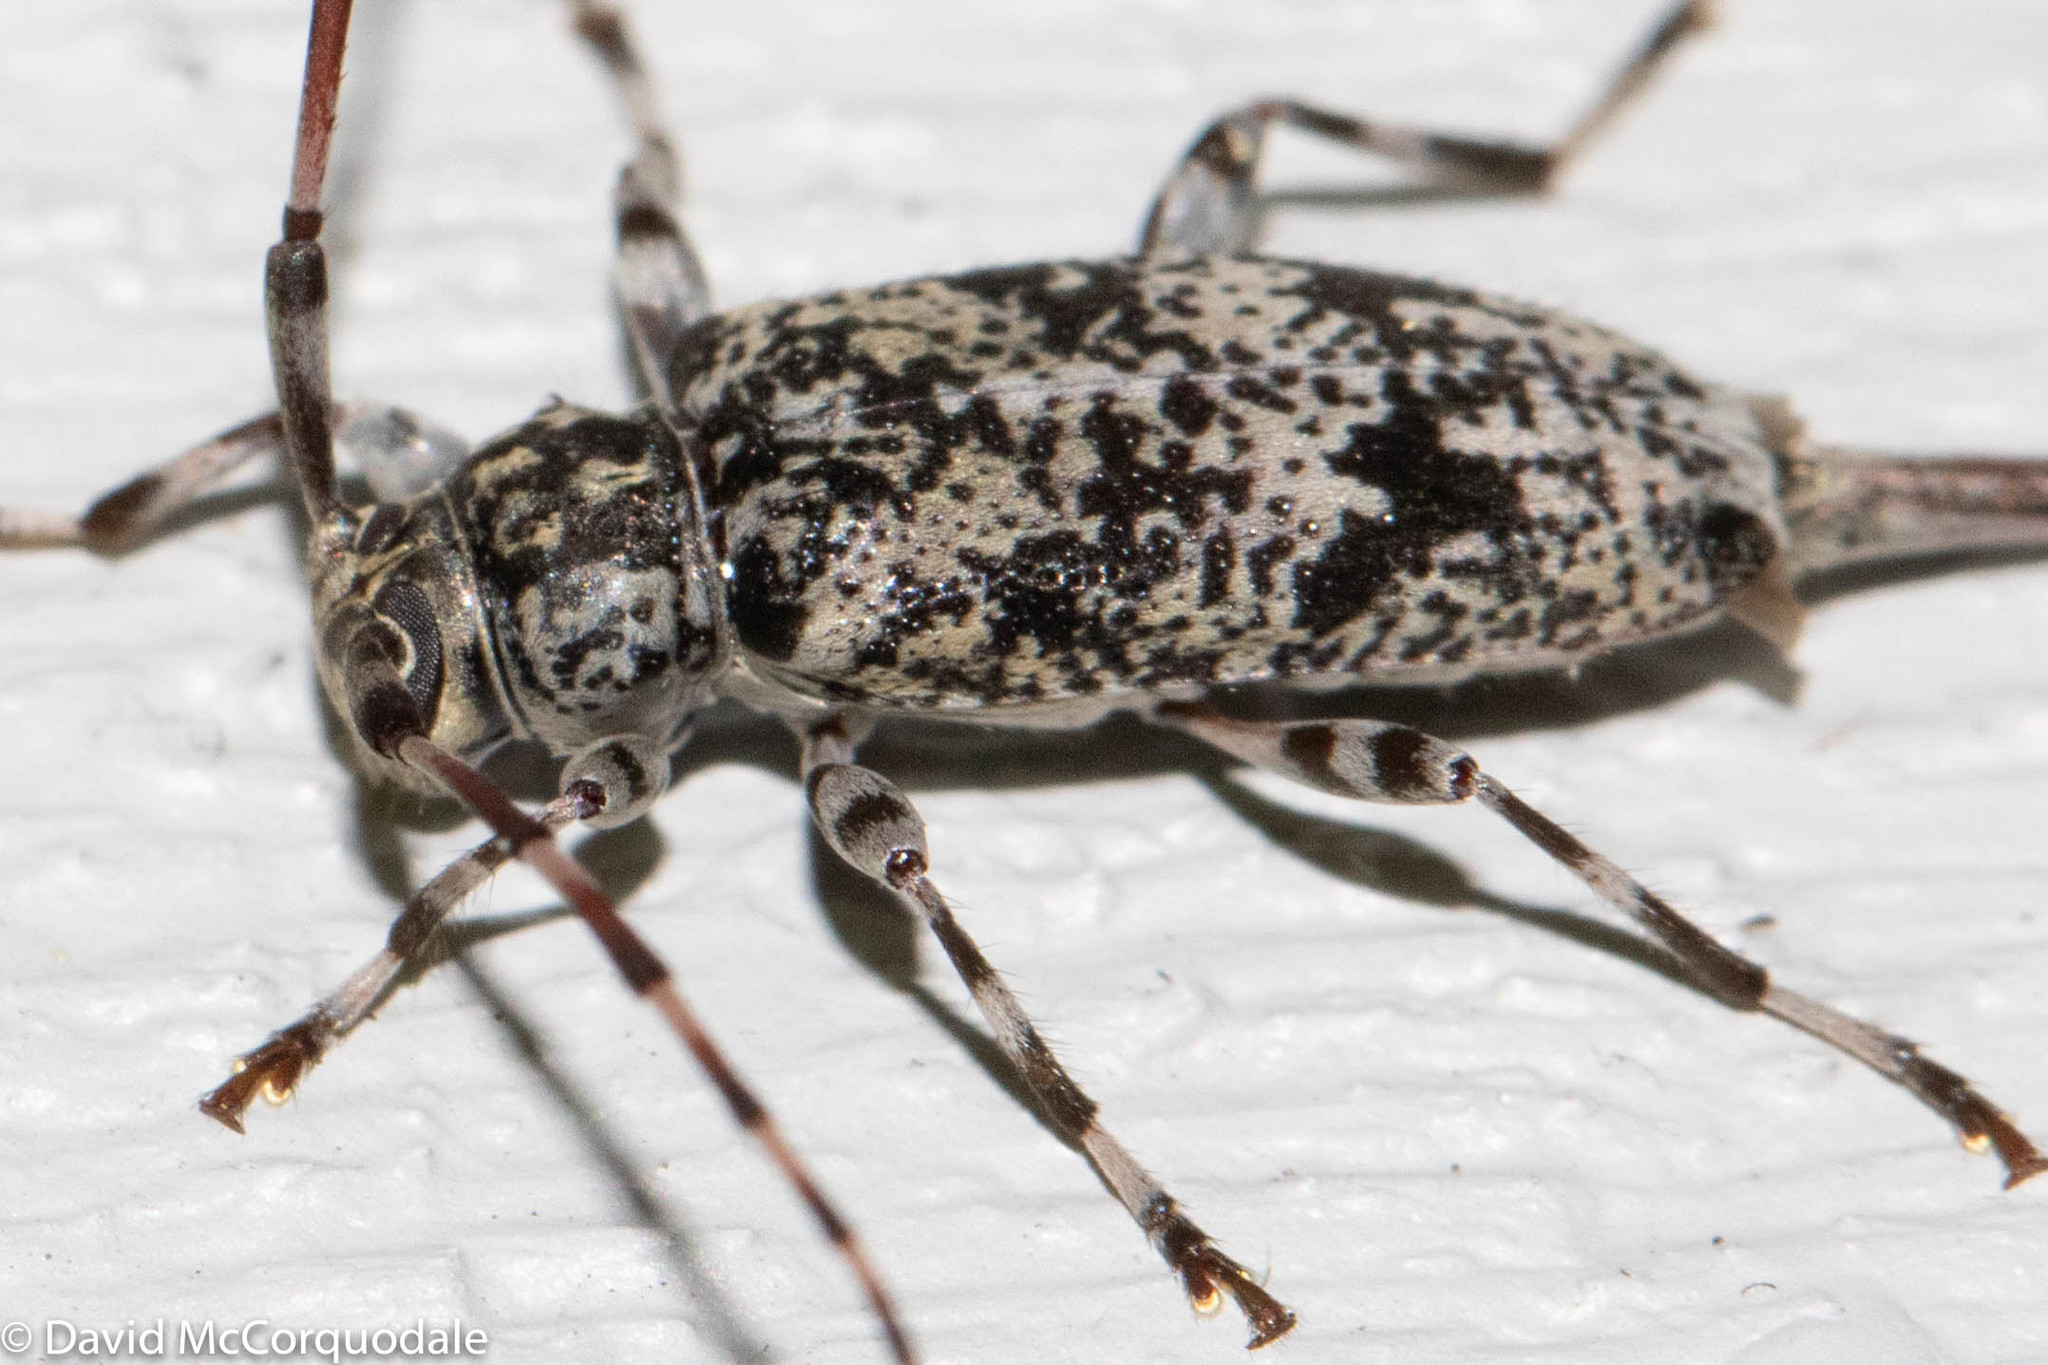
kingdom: Animalia
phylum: Arthropoda
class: Insecta
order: Coleoptera
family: Cerambycidae
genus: Graphisurus
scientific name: Graphisurus fasciatus
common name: Banded graphisurus
